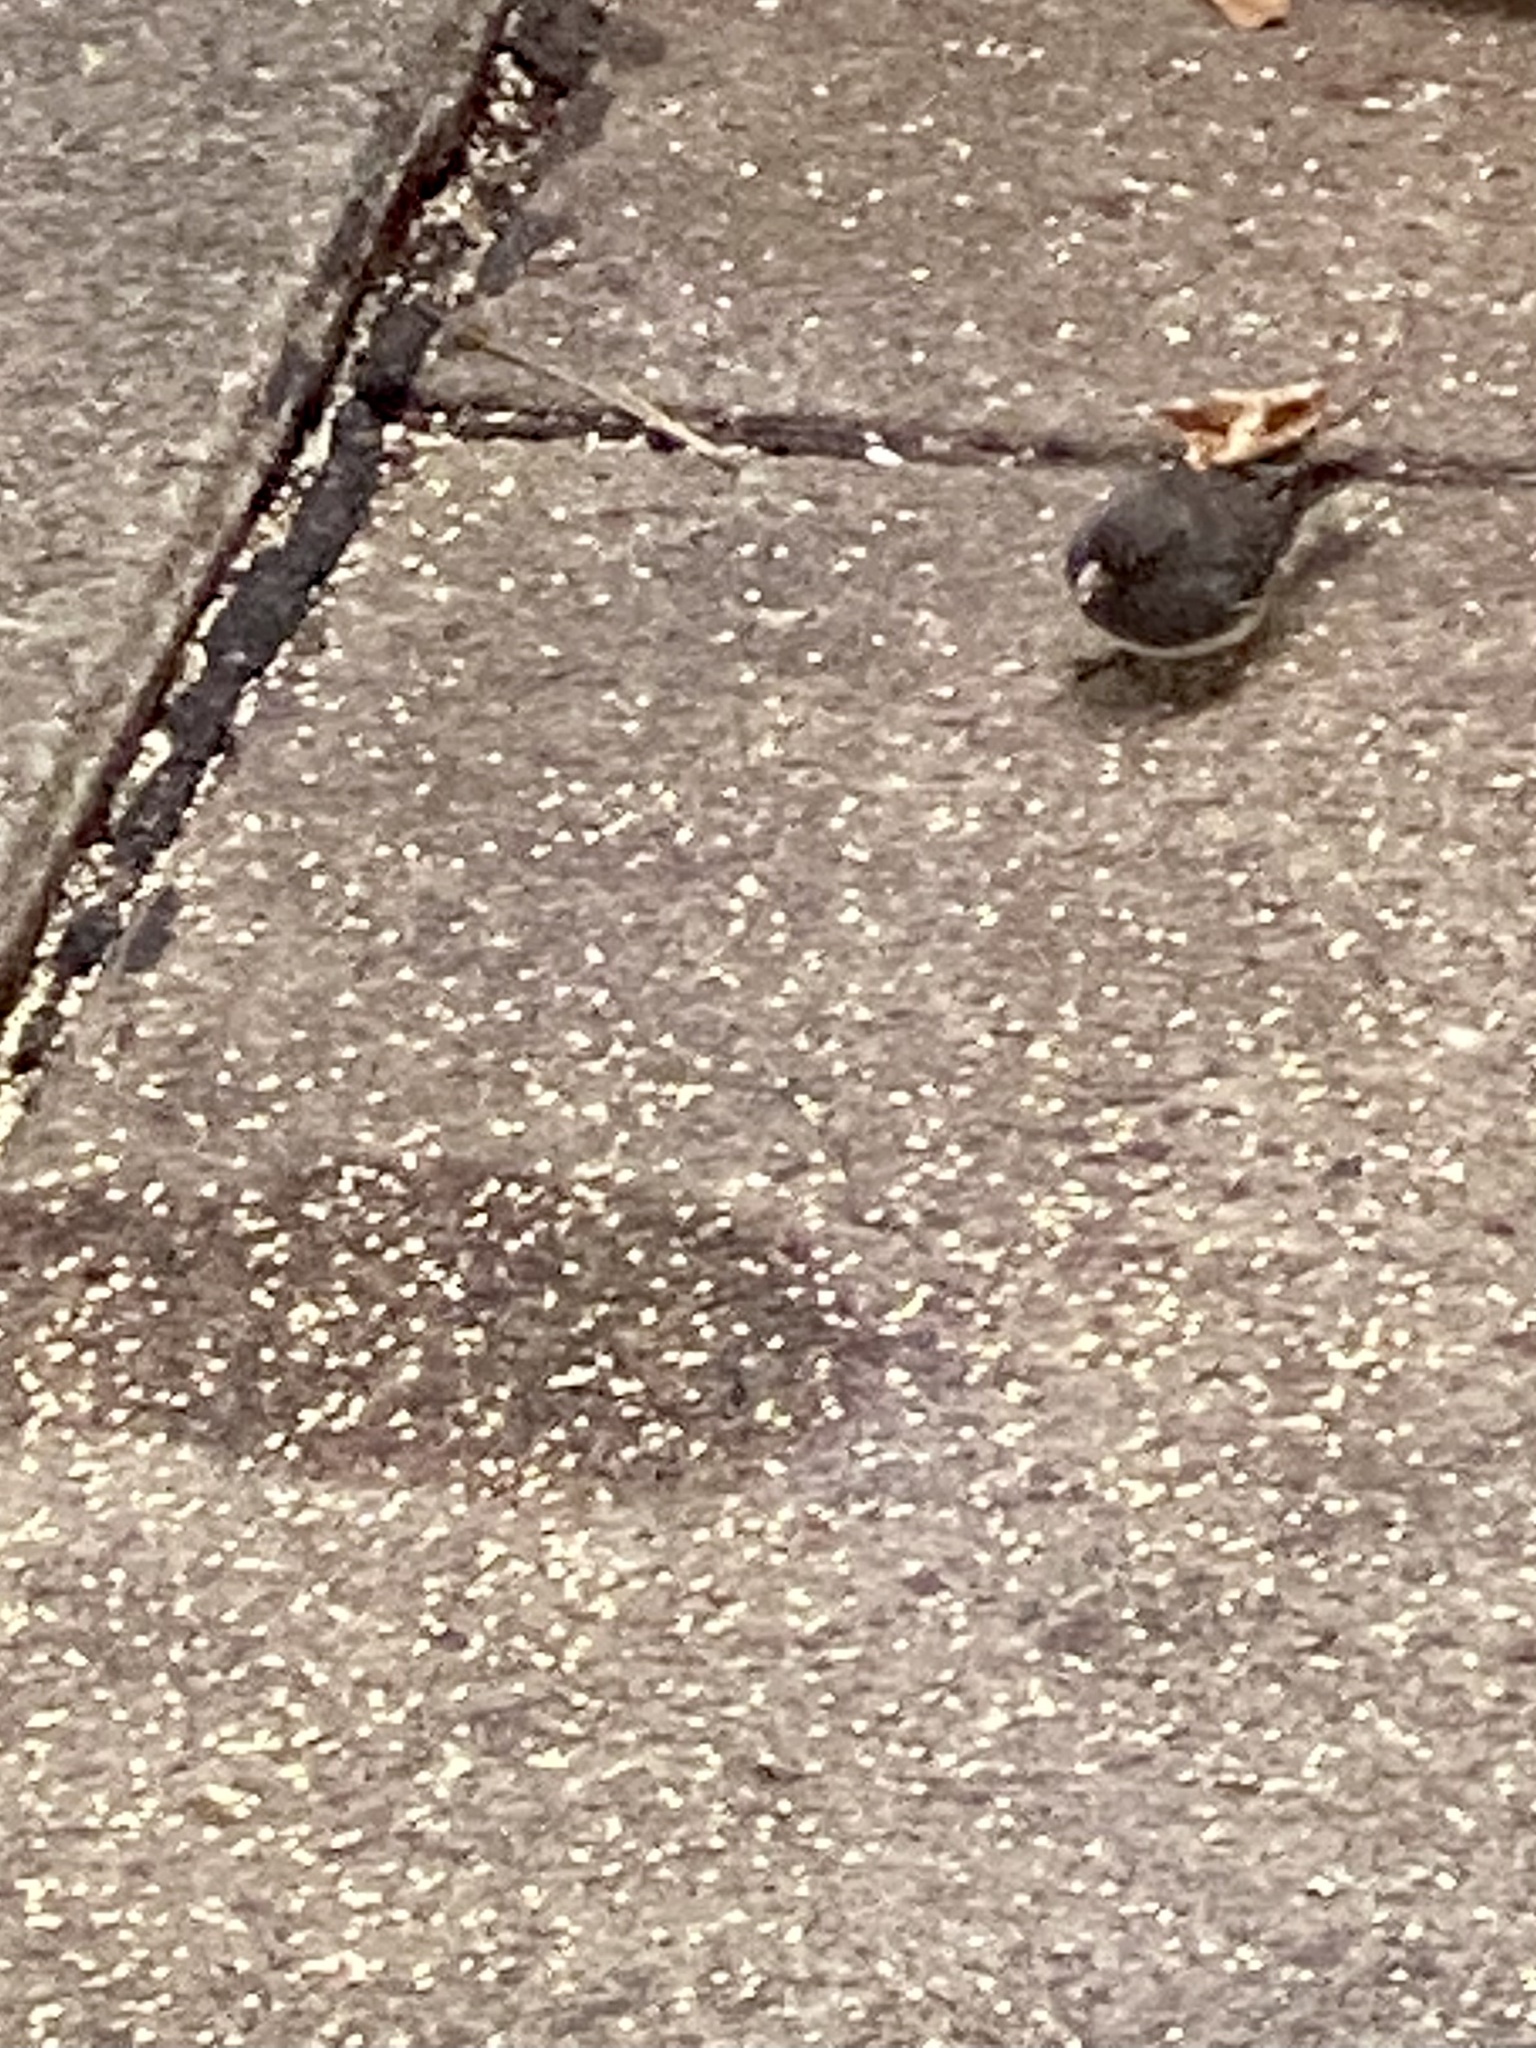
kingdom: Animalia
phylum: Chordata
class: Aves
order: Passeriformes
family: Passerellidae
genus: Junco
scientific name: Junco hyemalis
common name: Dark-eyed junco
